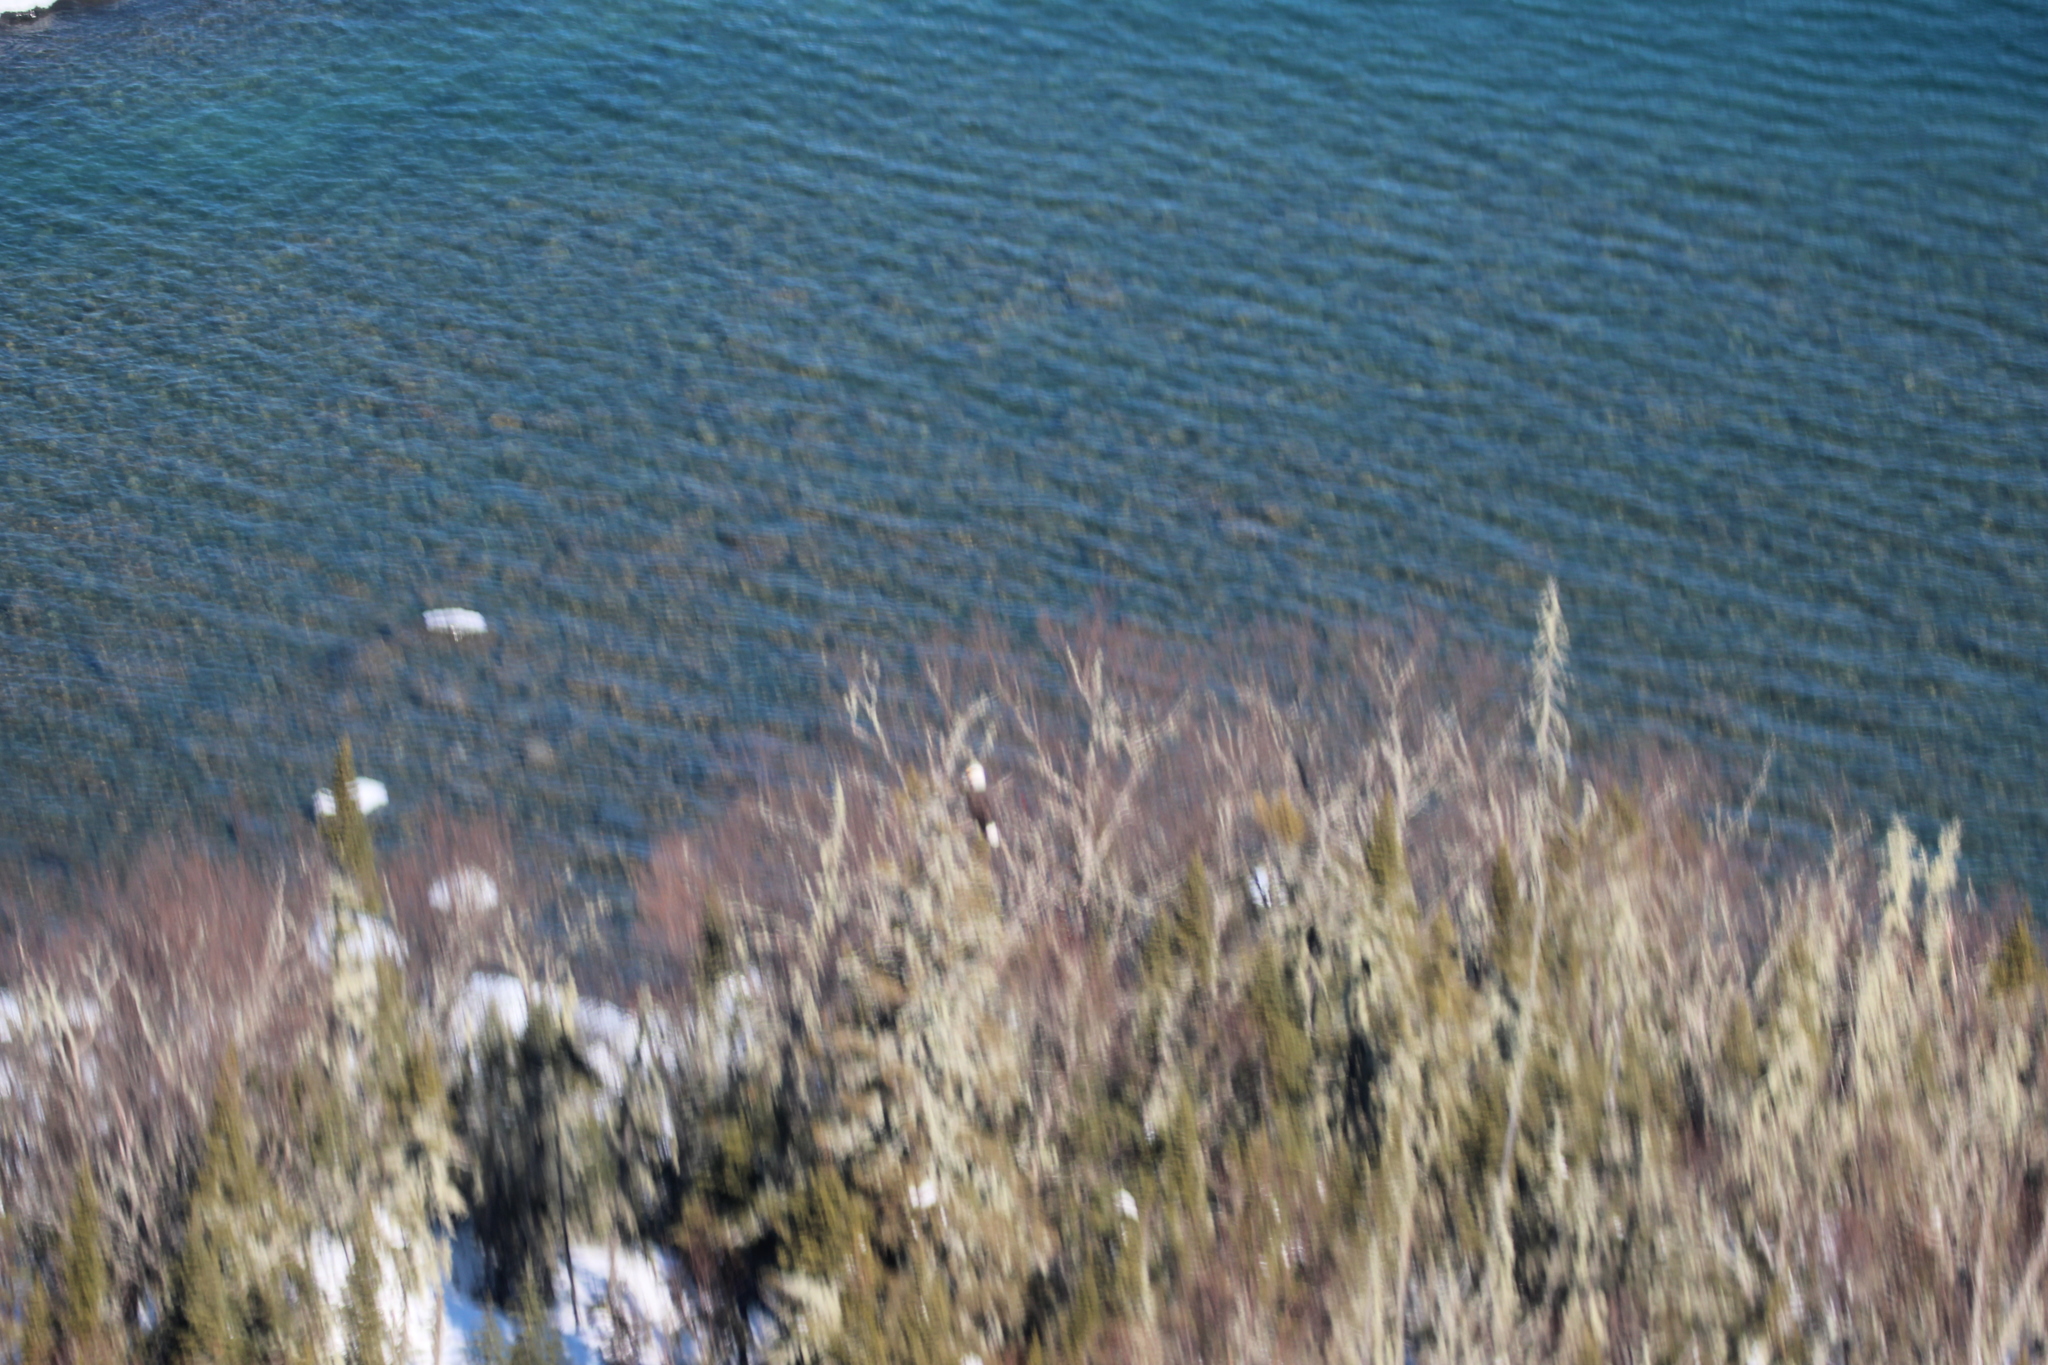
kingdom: Animalia
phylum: Chordata
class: Aves
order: Accipitriformes
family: Accipitridae
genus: Haliaeetus
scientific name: Haliaeetus leucocephalus
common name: Bald eagle
